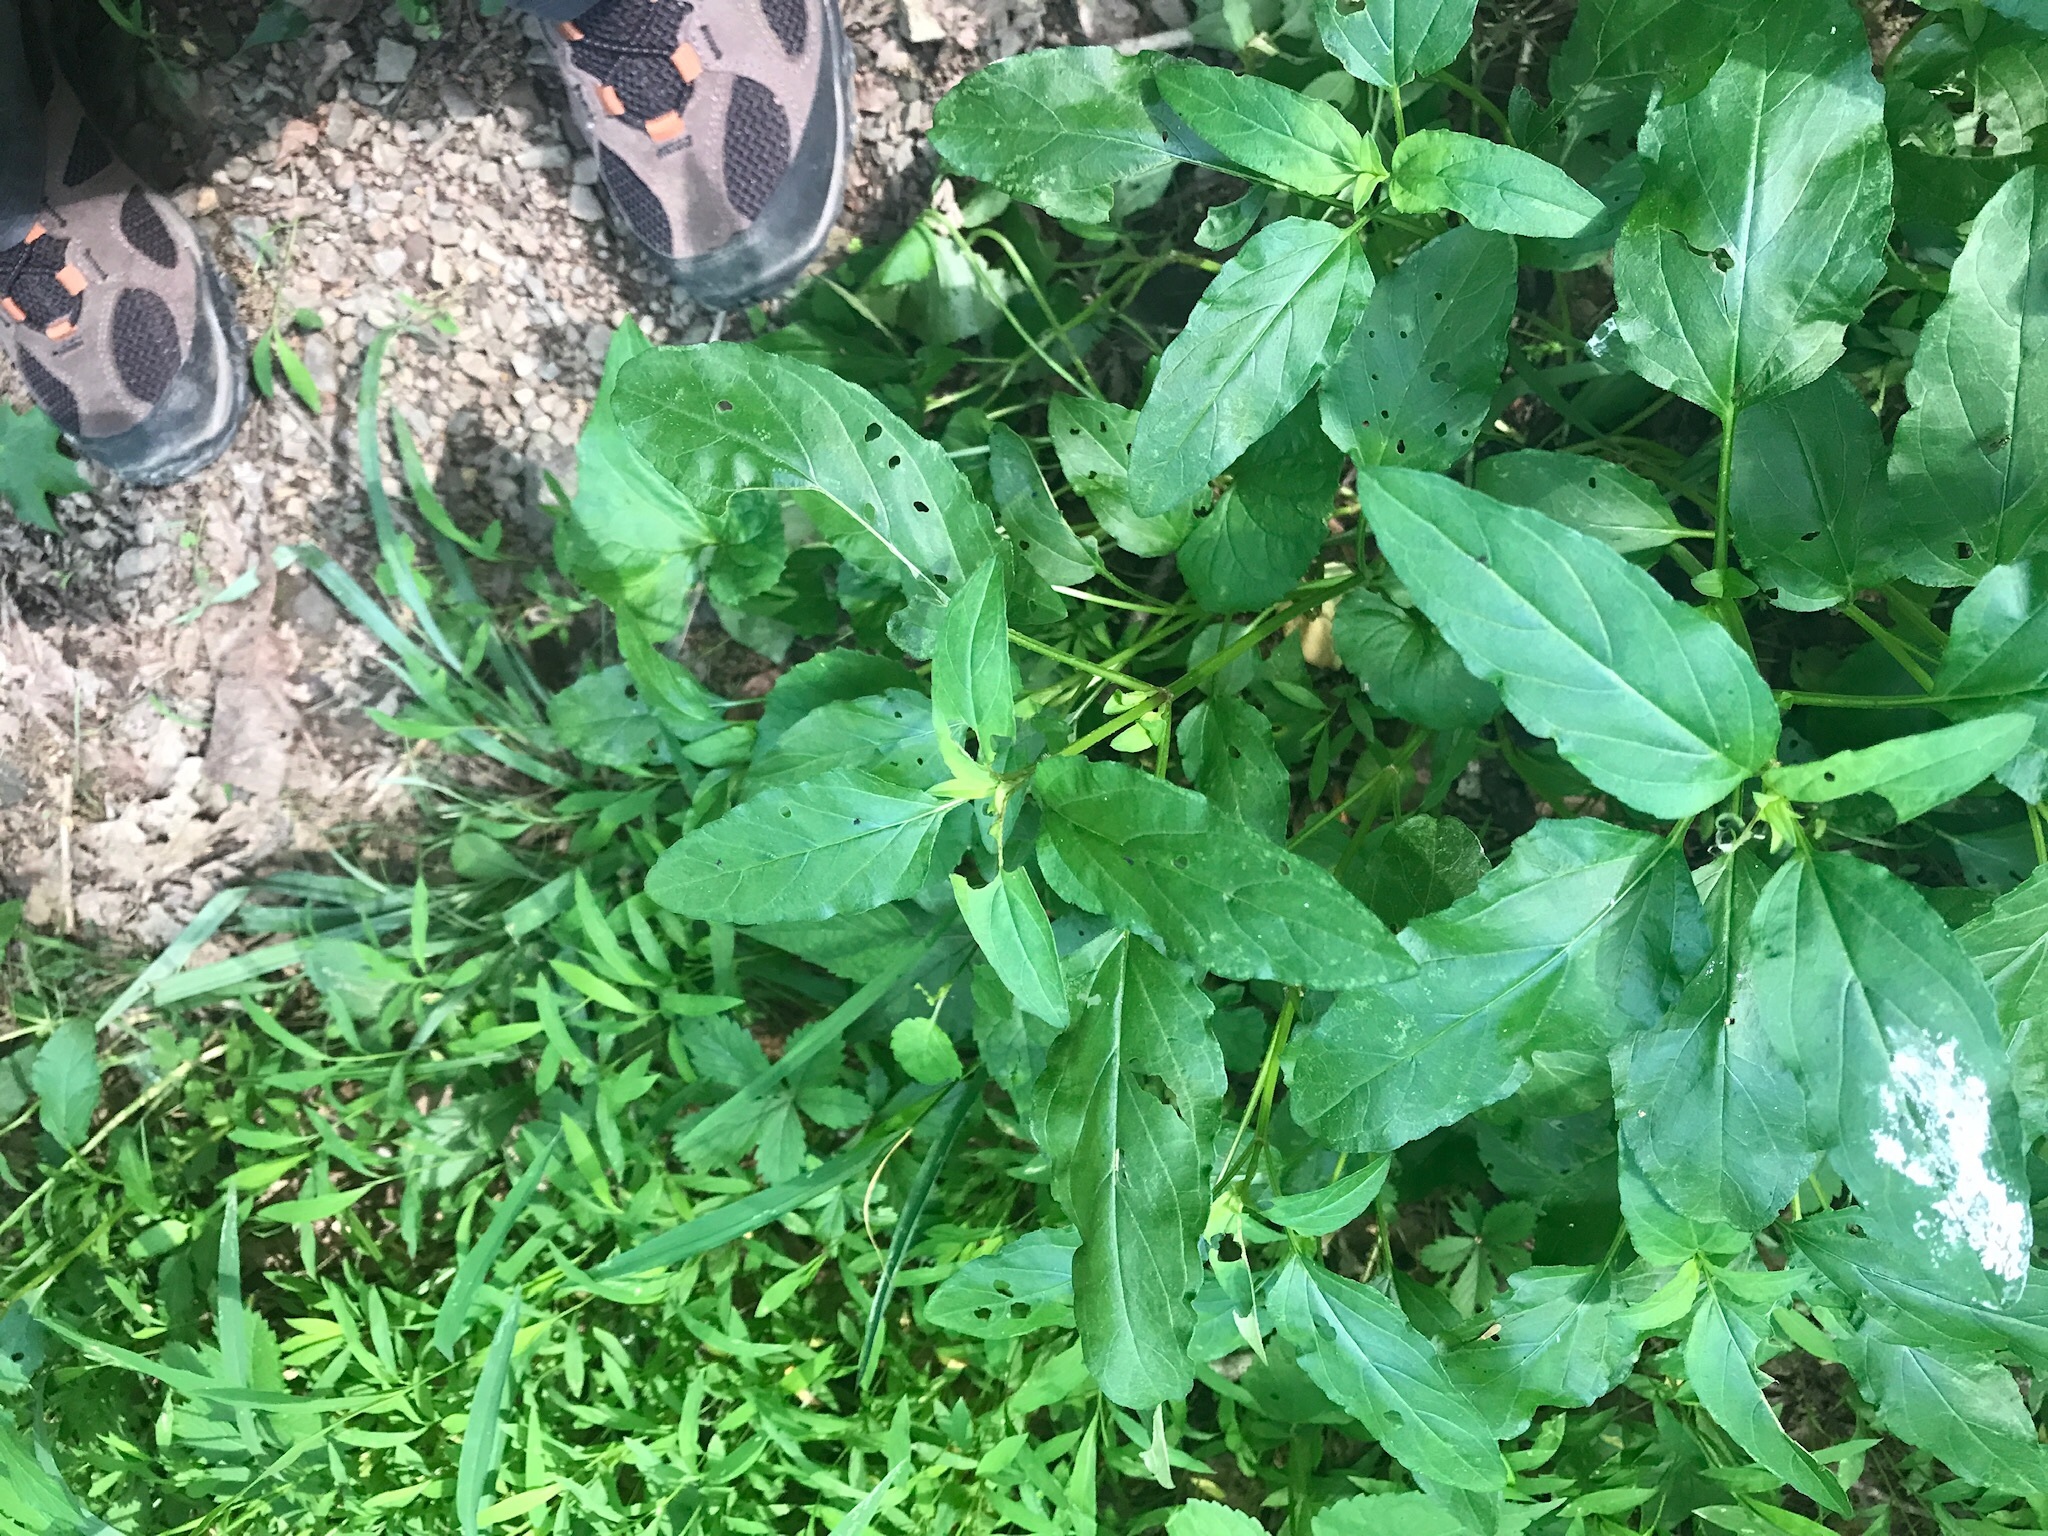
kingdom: Plantae
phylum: Tracheophyta
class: Magnoliopsida
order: Lamiales
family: Lamiaceae
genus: Prunella
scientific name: Prunella vulgaris
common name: Heal-all
